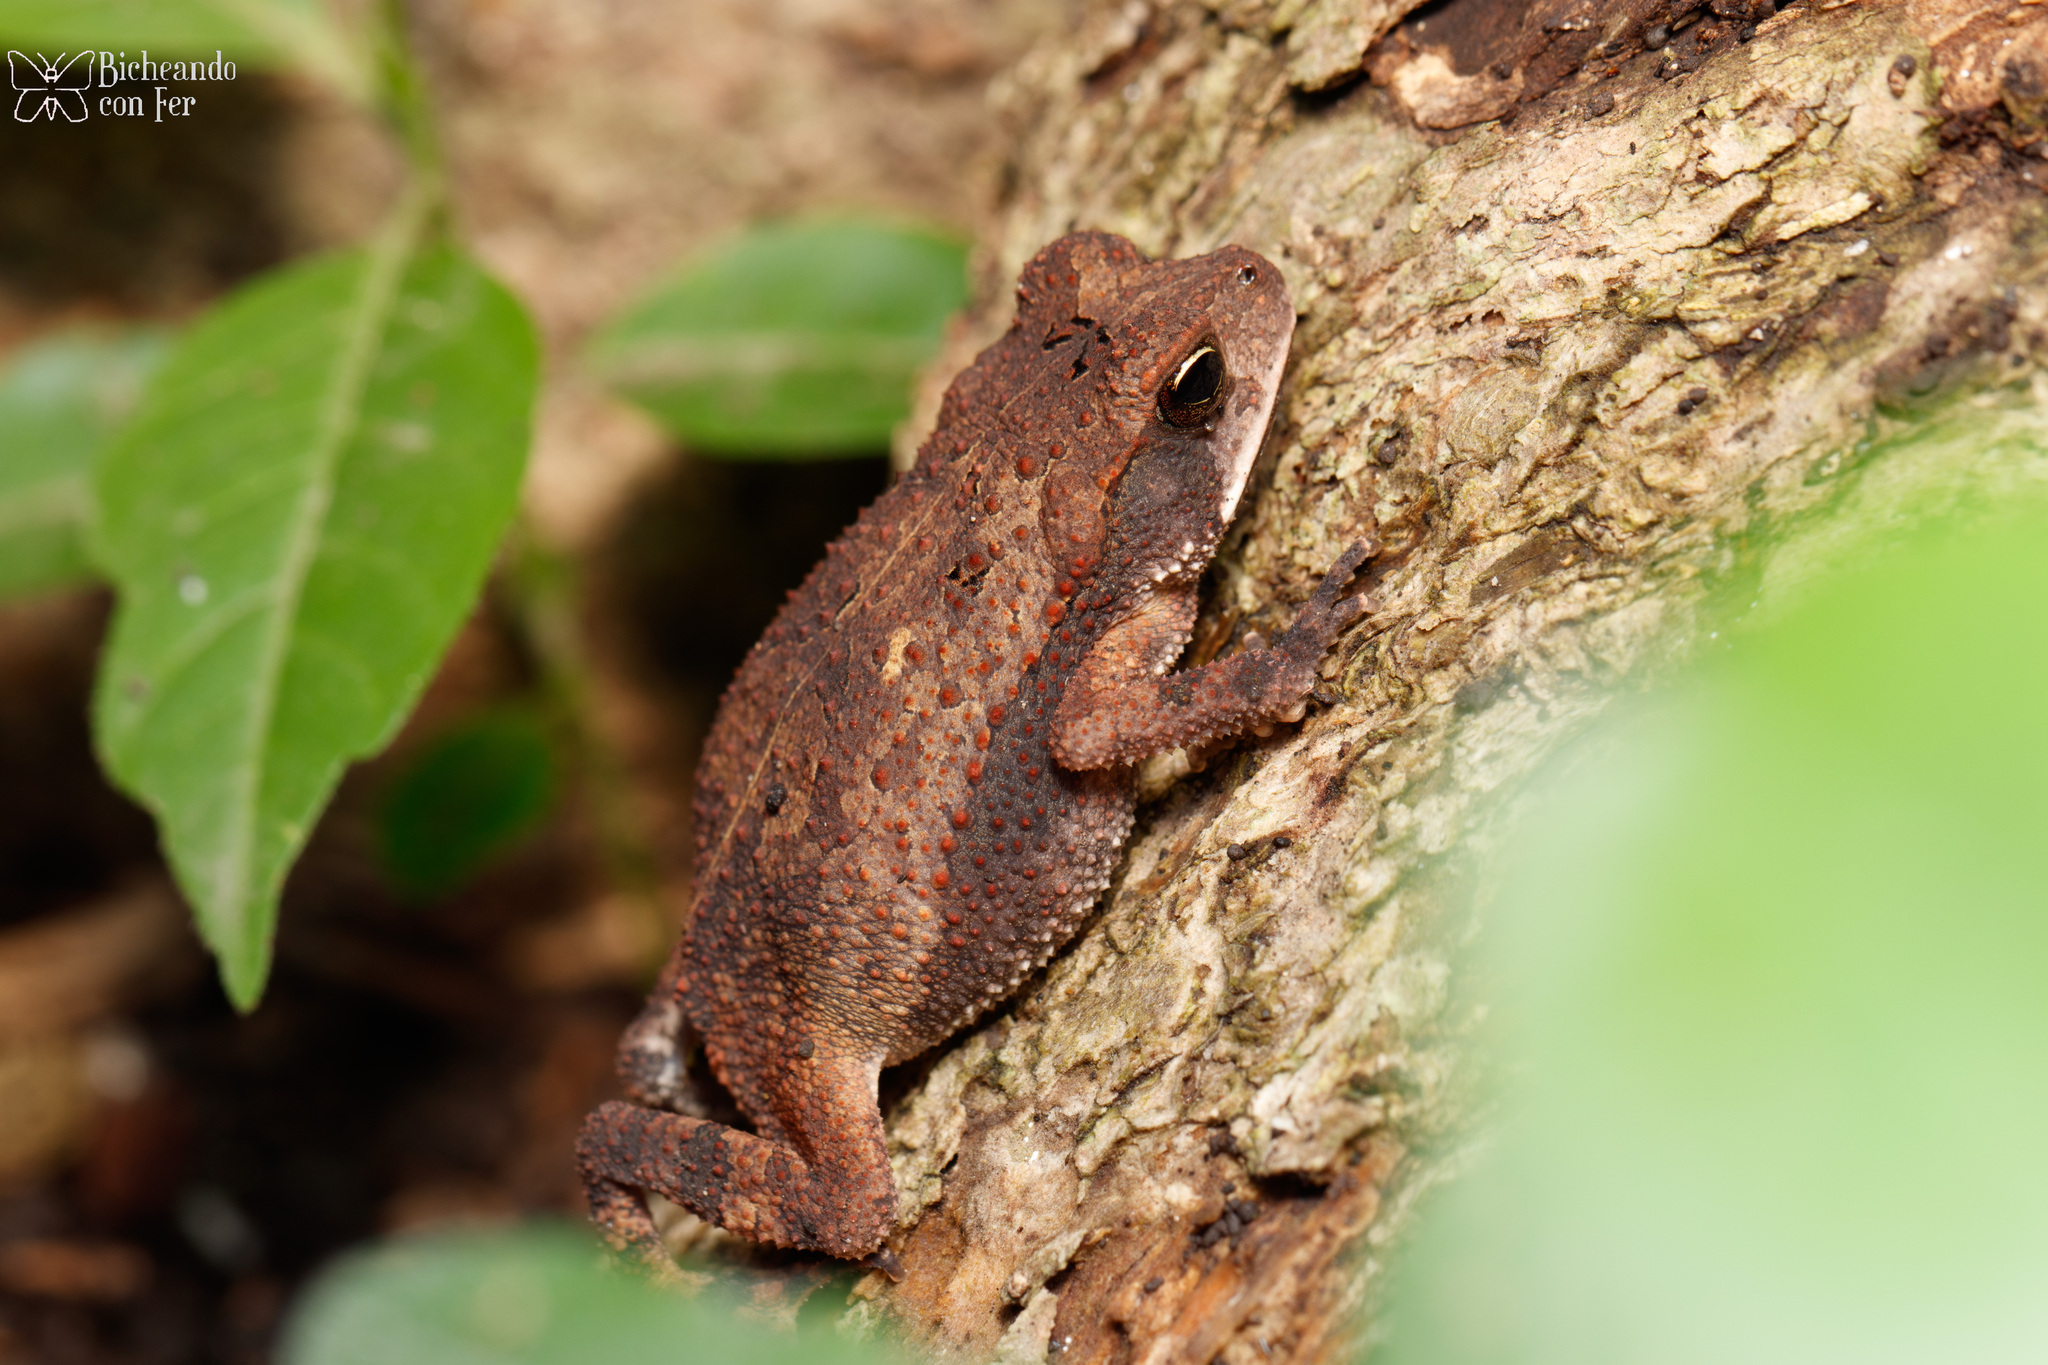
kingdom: Animalia
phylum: Chordata
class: Amphibia
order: Anura
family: Bufonidae
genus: Incilius
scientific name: Incilius valliceps
